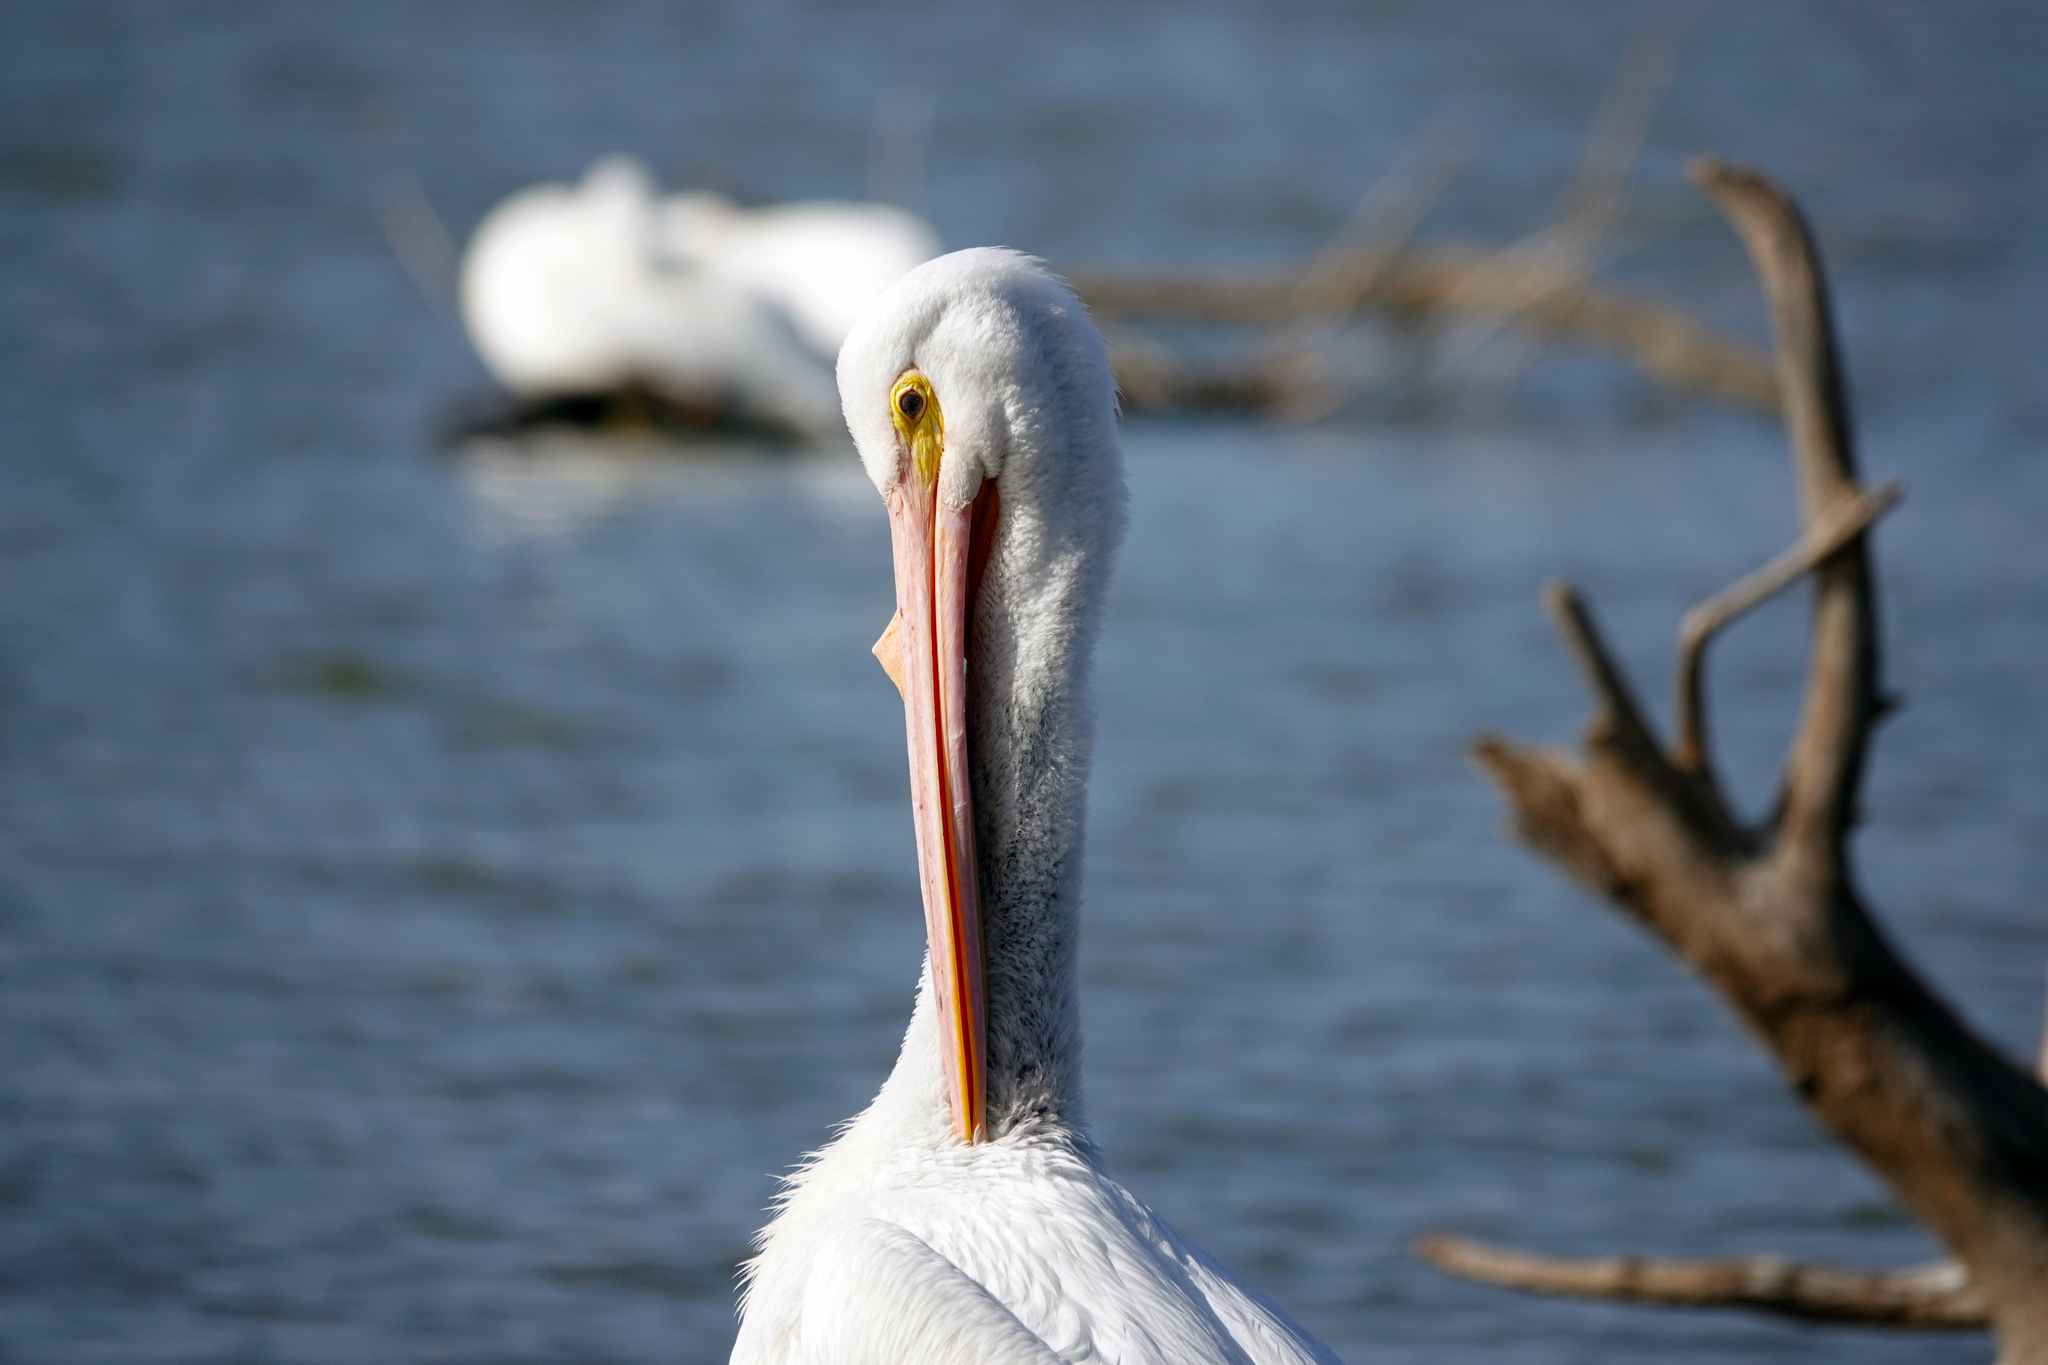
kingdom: Animalia
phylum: Chordata
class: Aves
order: Pelecaniformes
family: Pelecanidae
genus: Pelecanus
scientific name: Pelecanus erythrorhynchos
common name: American white pelican
